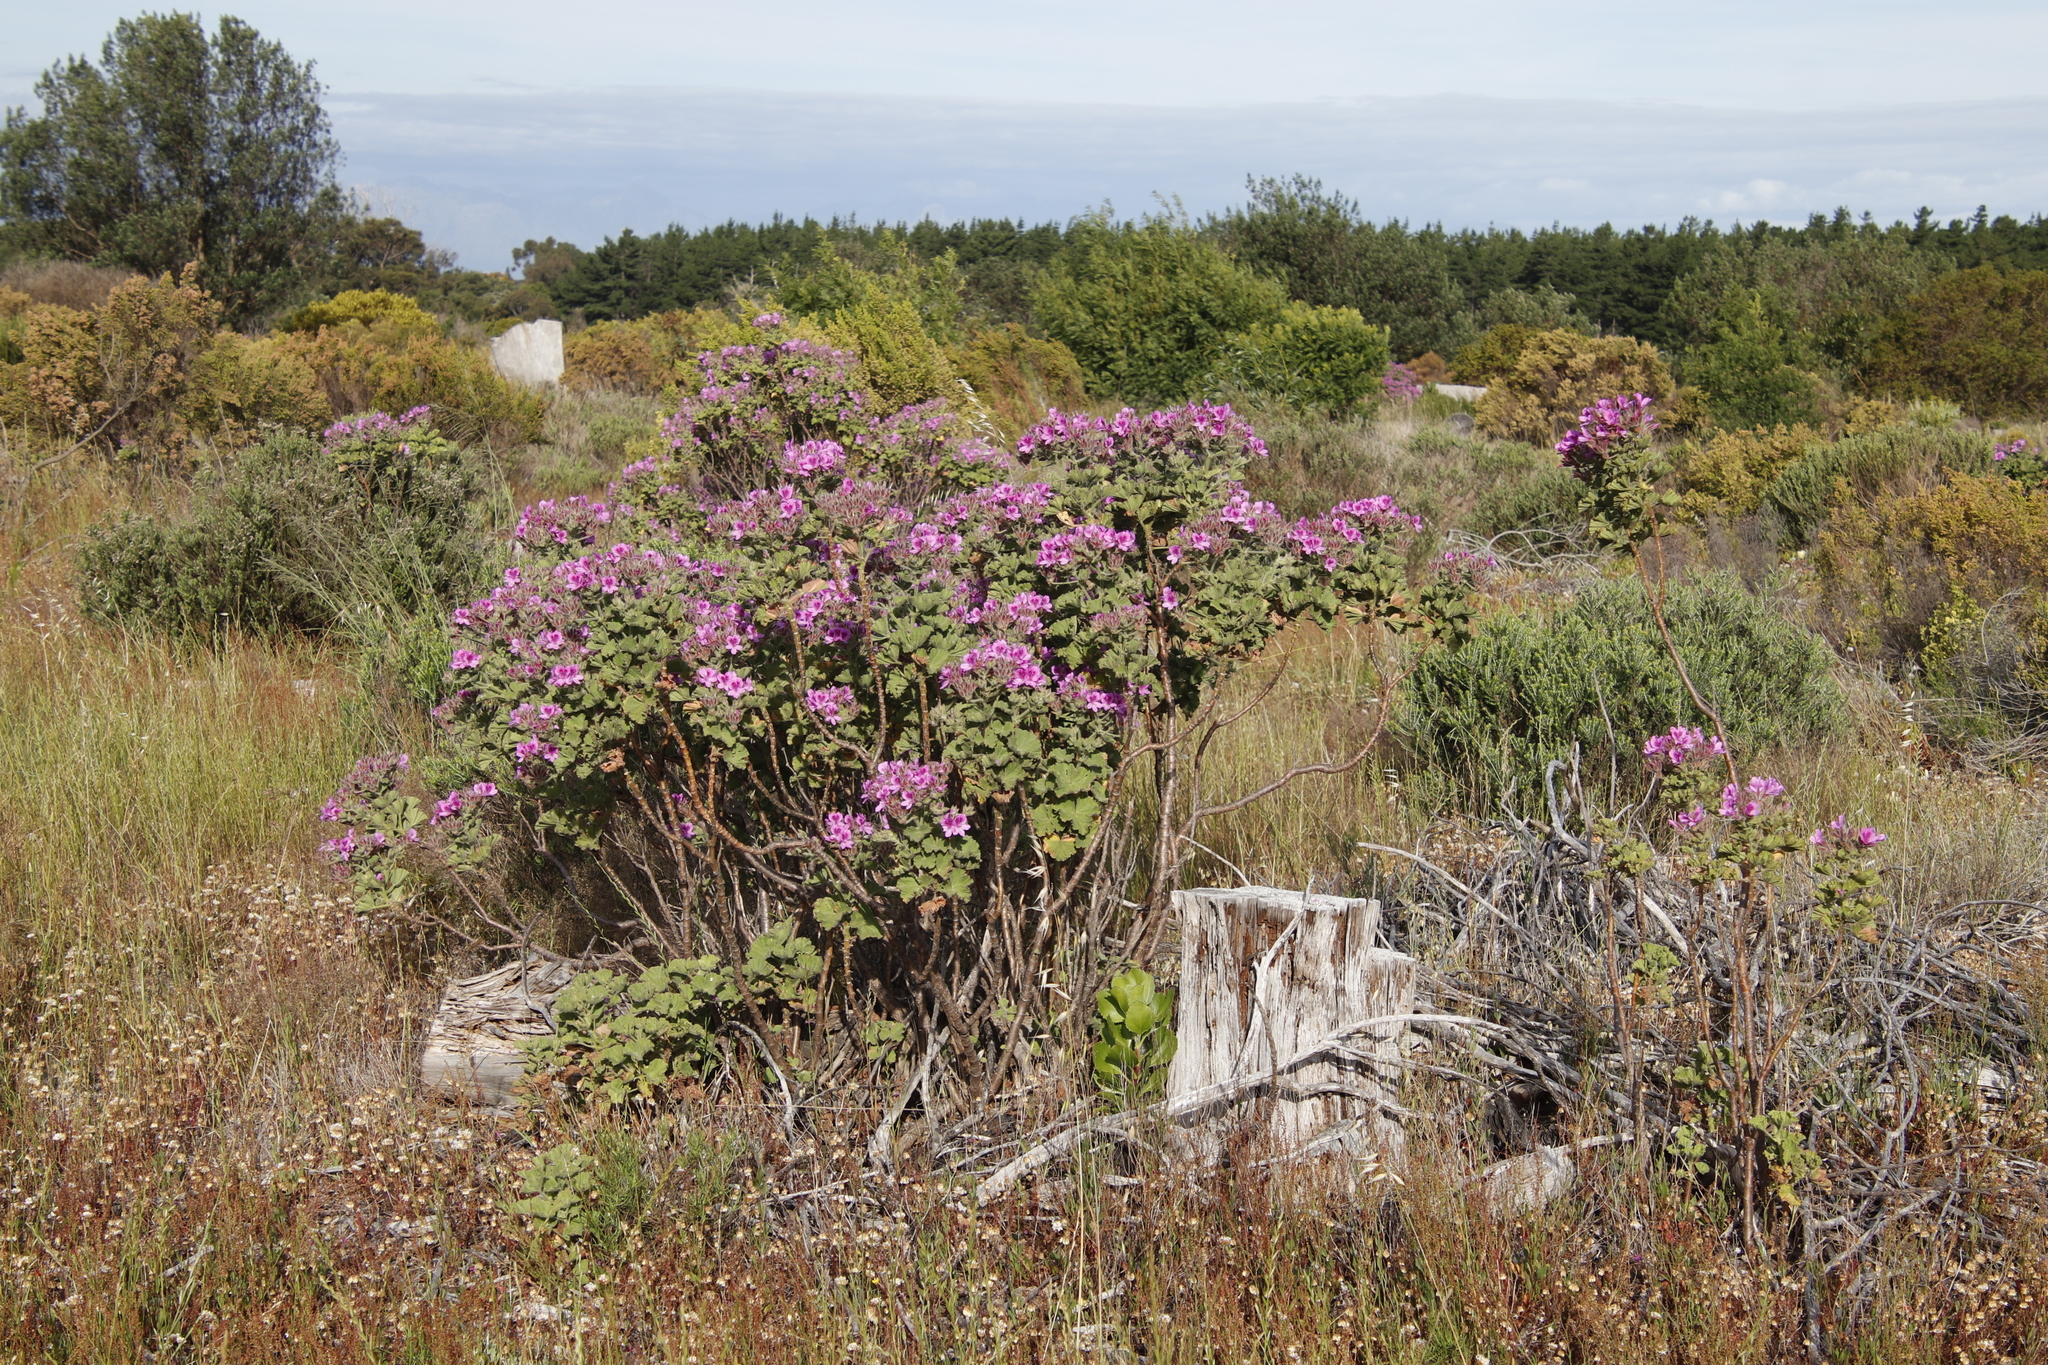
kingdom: Plantae
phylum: Tracheophyta
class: Magnoliopsida
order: Geraniales
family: Geraniaceae
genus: Pelargonium
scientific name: Pelargonium cucullatum
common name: Tree pelargonium
